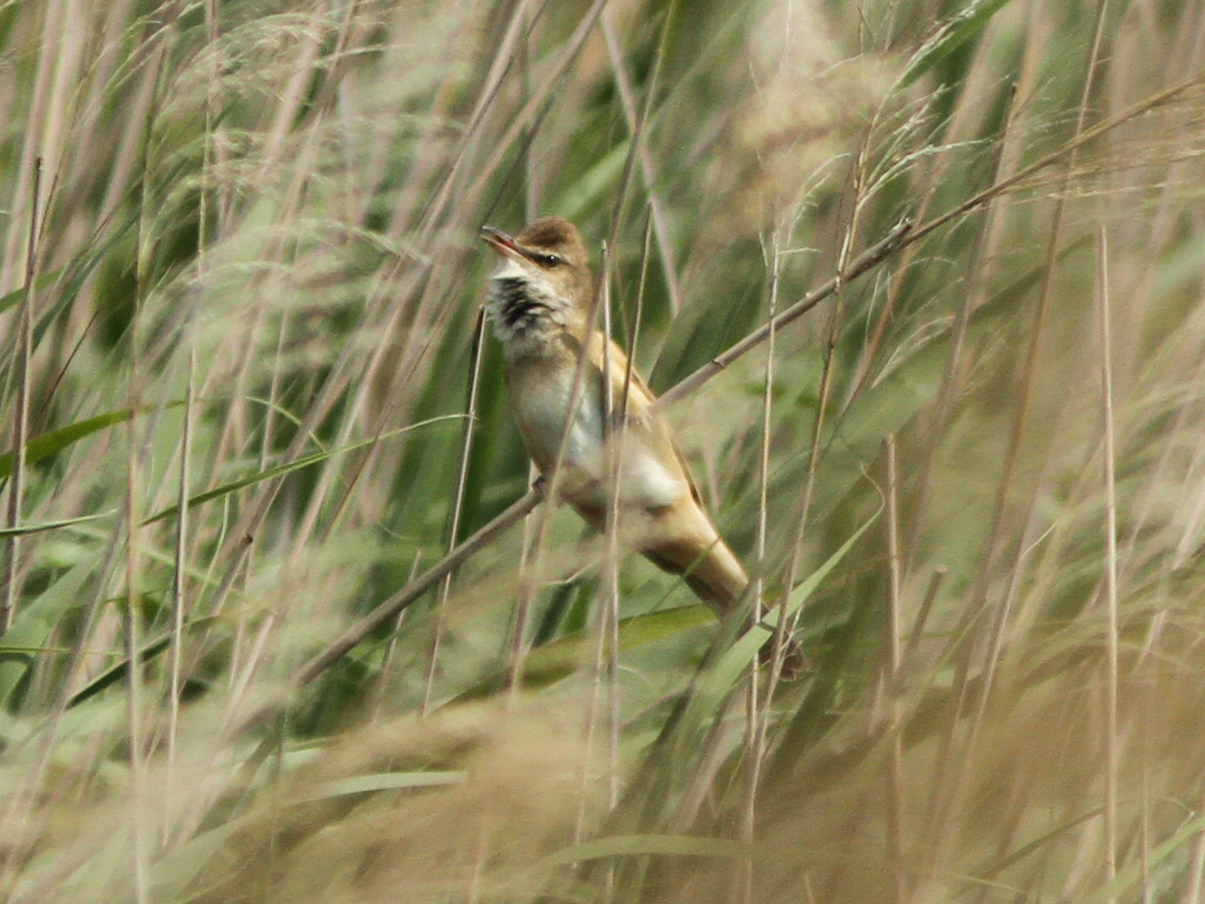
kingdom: Animalia
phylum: Chordata
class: Aves
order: Passeriformes
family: Acrocephalidae
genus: Acrocephalus
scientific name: Acrocephalus arundinaceus
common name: Great reed warbler
